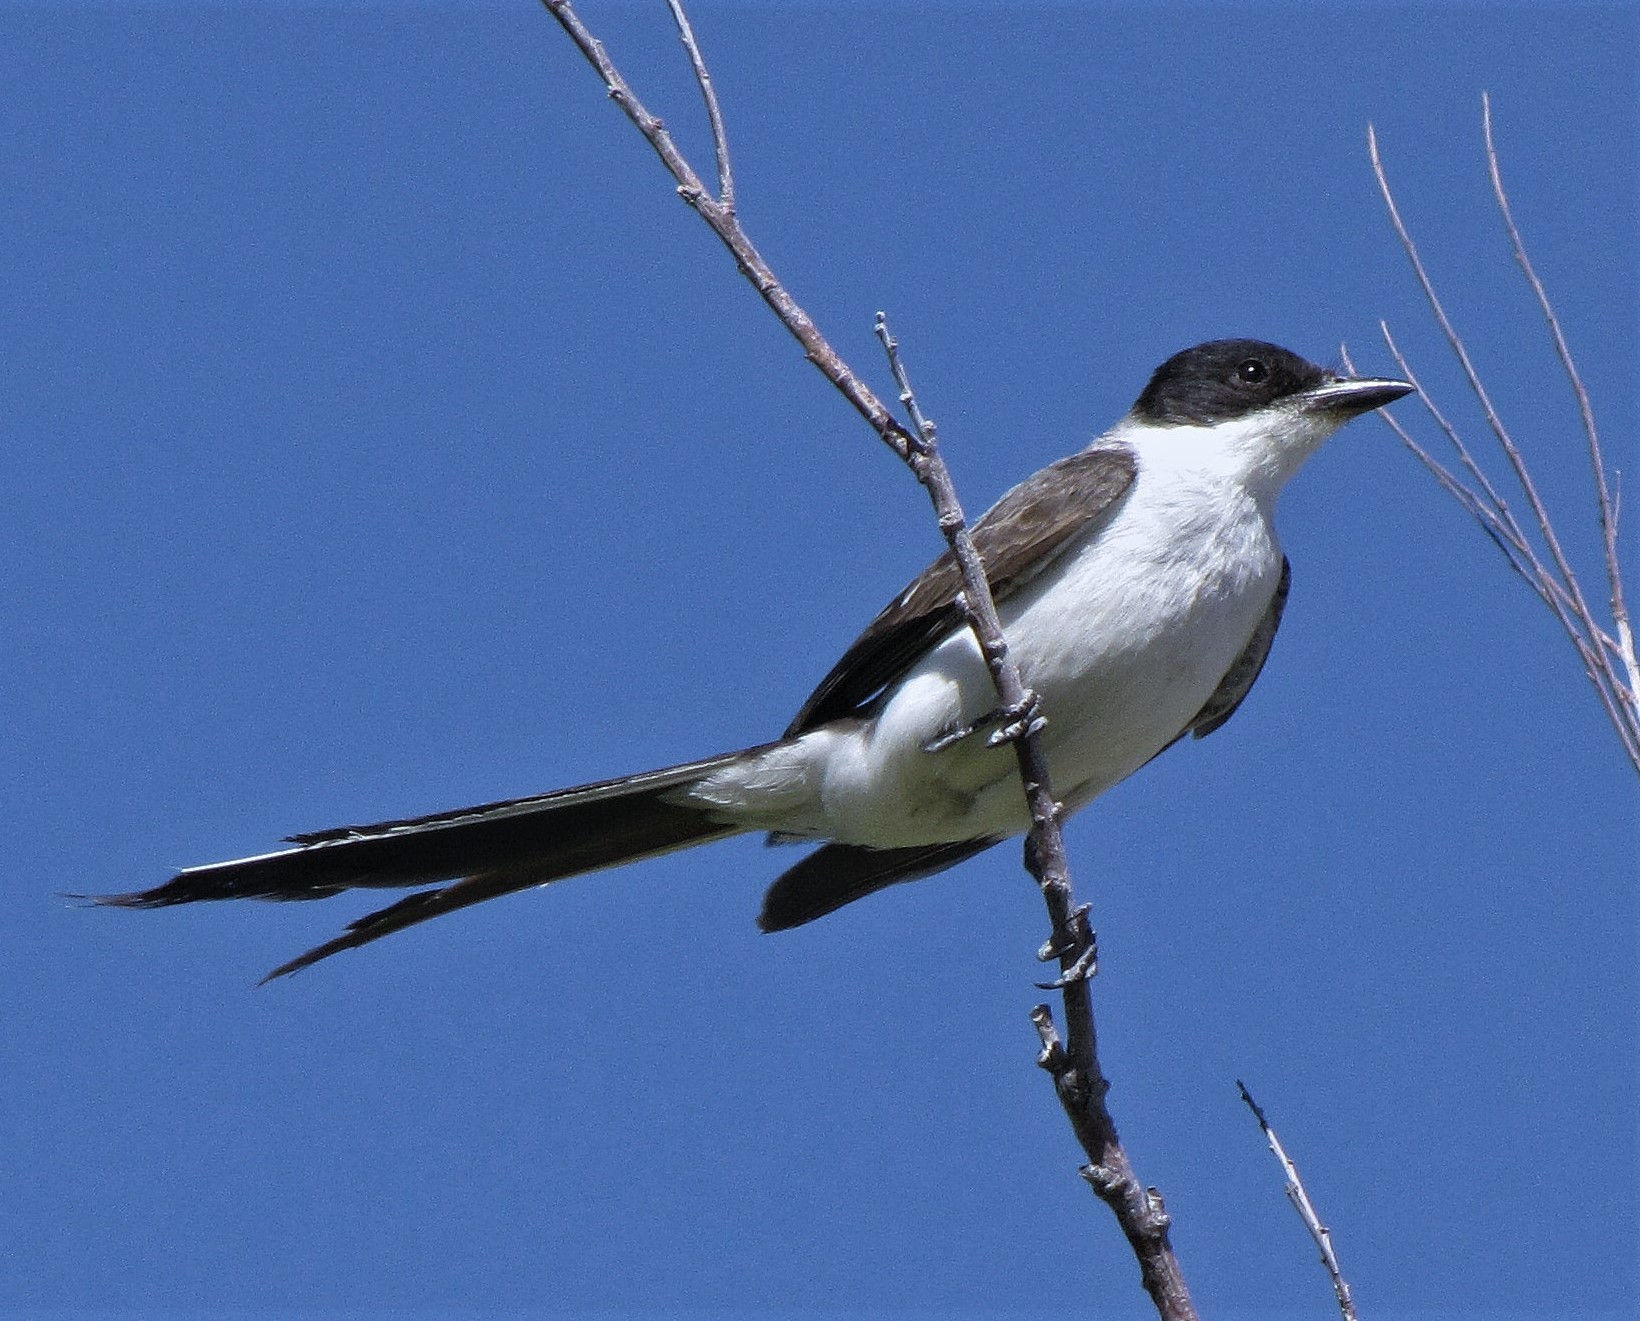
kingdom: Animalia
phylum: Chordata
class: Aves
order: Passeriformes
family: Tyrannidae
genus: Tyrannus
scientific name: Tyrannus savana
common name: Fork-tailed flycatcher
